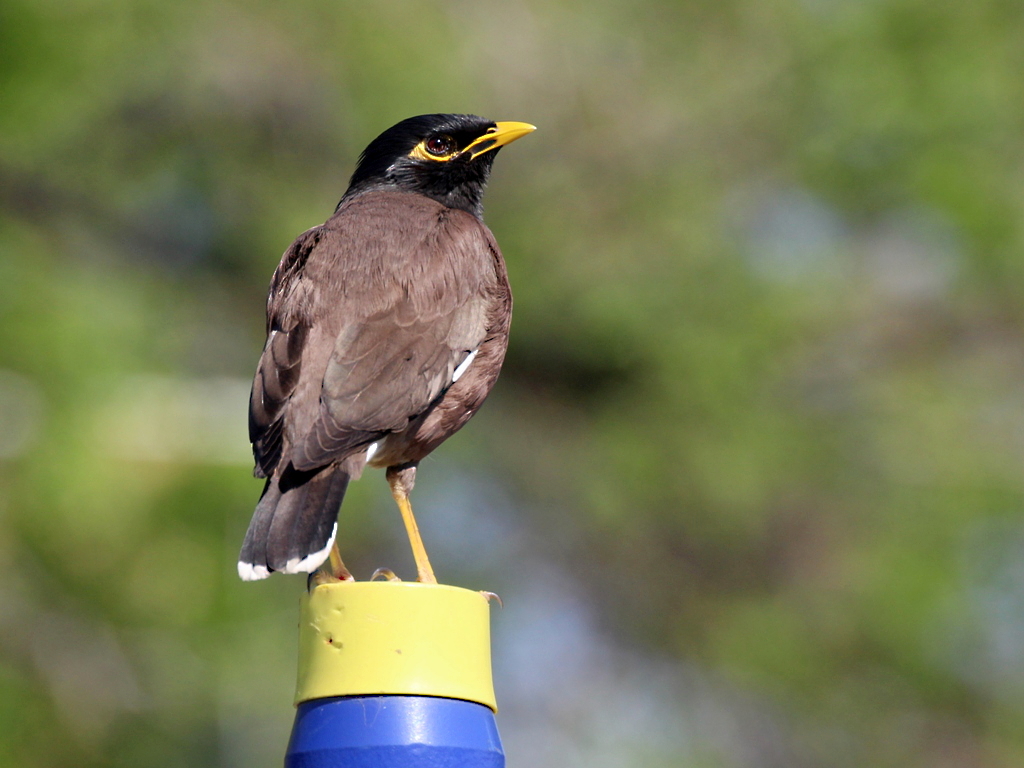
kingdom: Animalia
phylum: Chordata
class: Aves
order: Passeriformes
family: Sturnidae
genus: Acridotheres
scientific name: Acridotheres tristis
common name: Common myna
